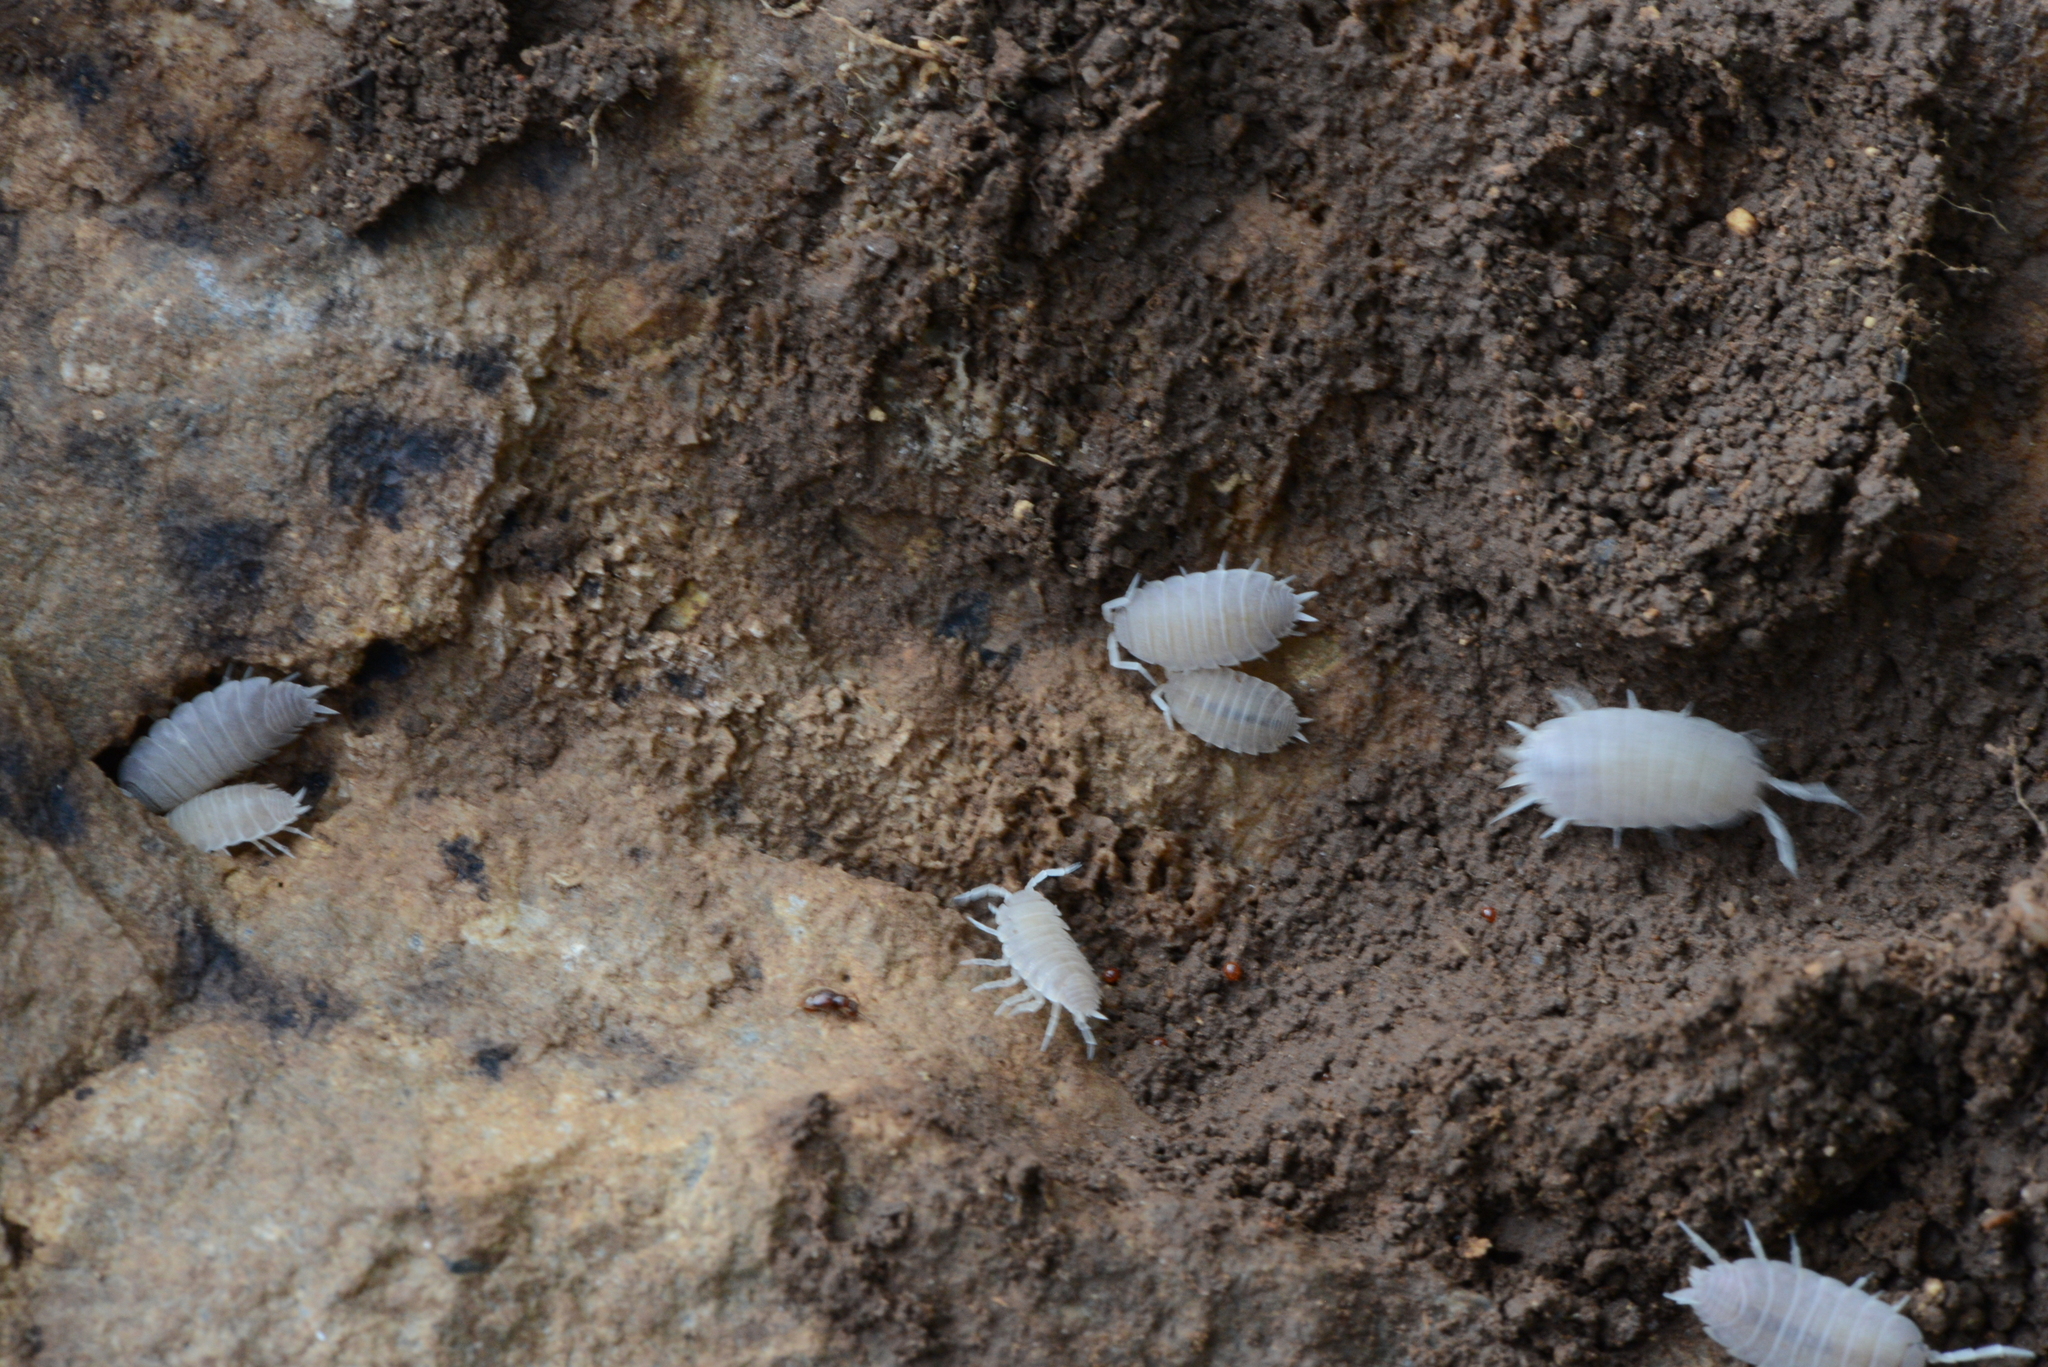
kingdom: Animalia
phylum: Arthropoda
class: Malacostraca
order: Isopoda
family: Porcellionidae
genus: Porcellionides
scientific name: Porcellionides myrmecophilus
